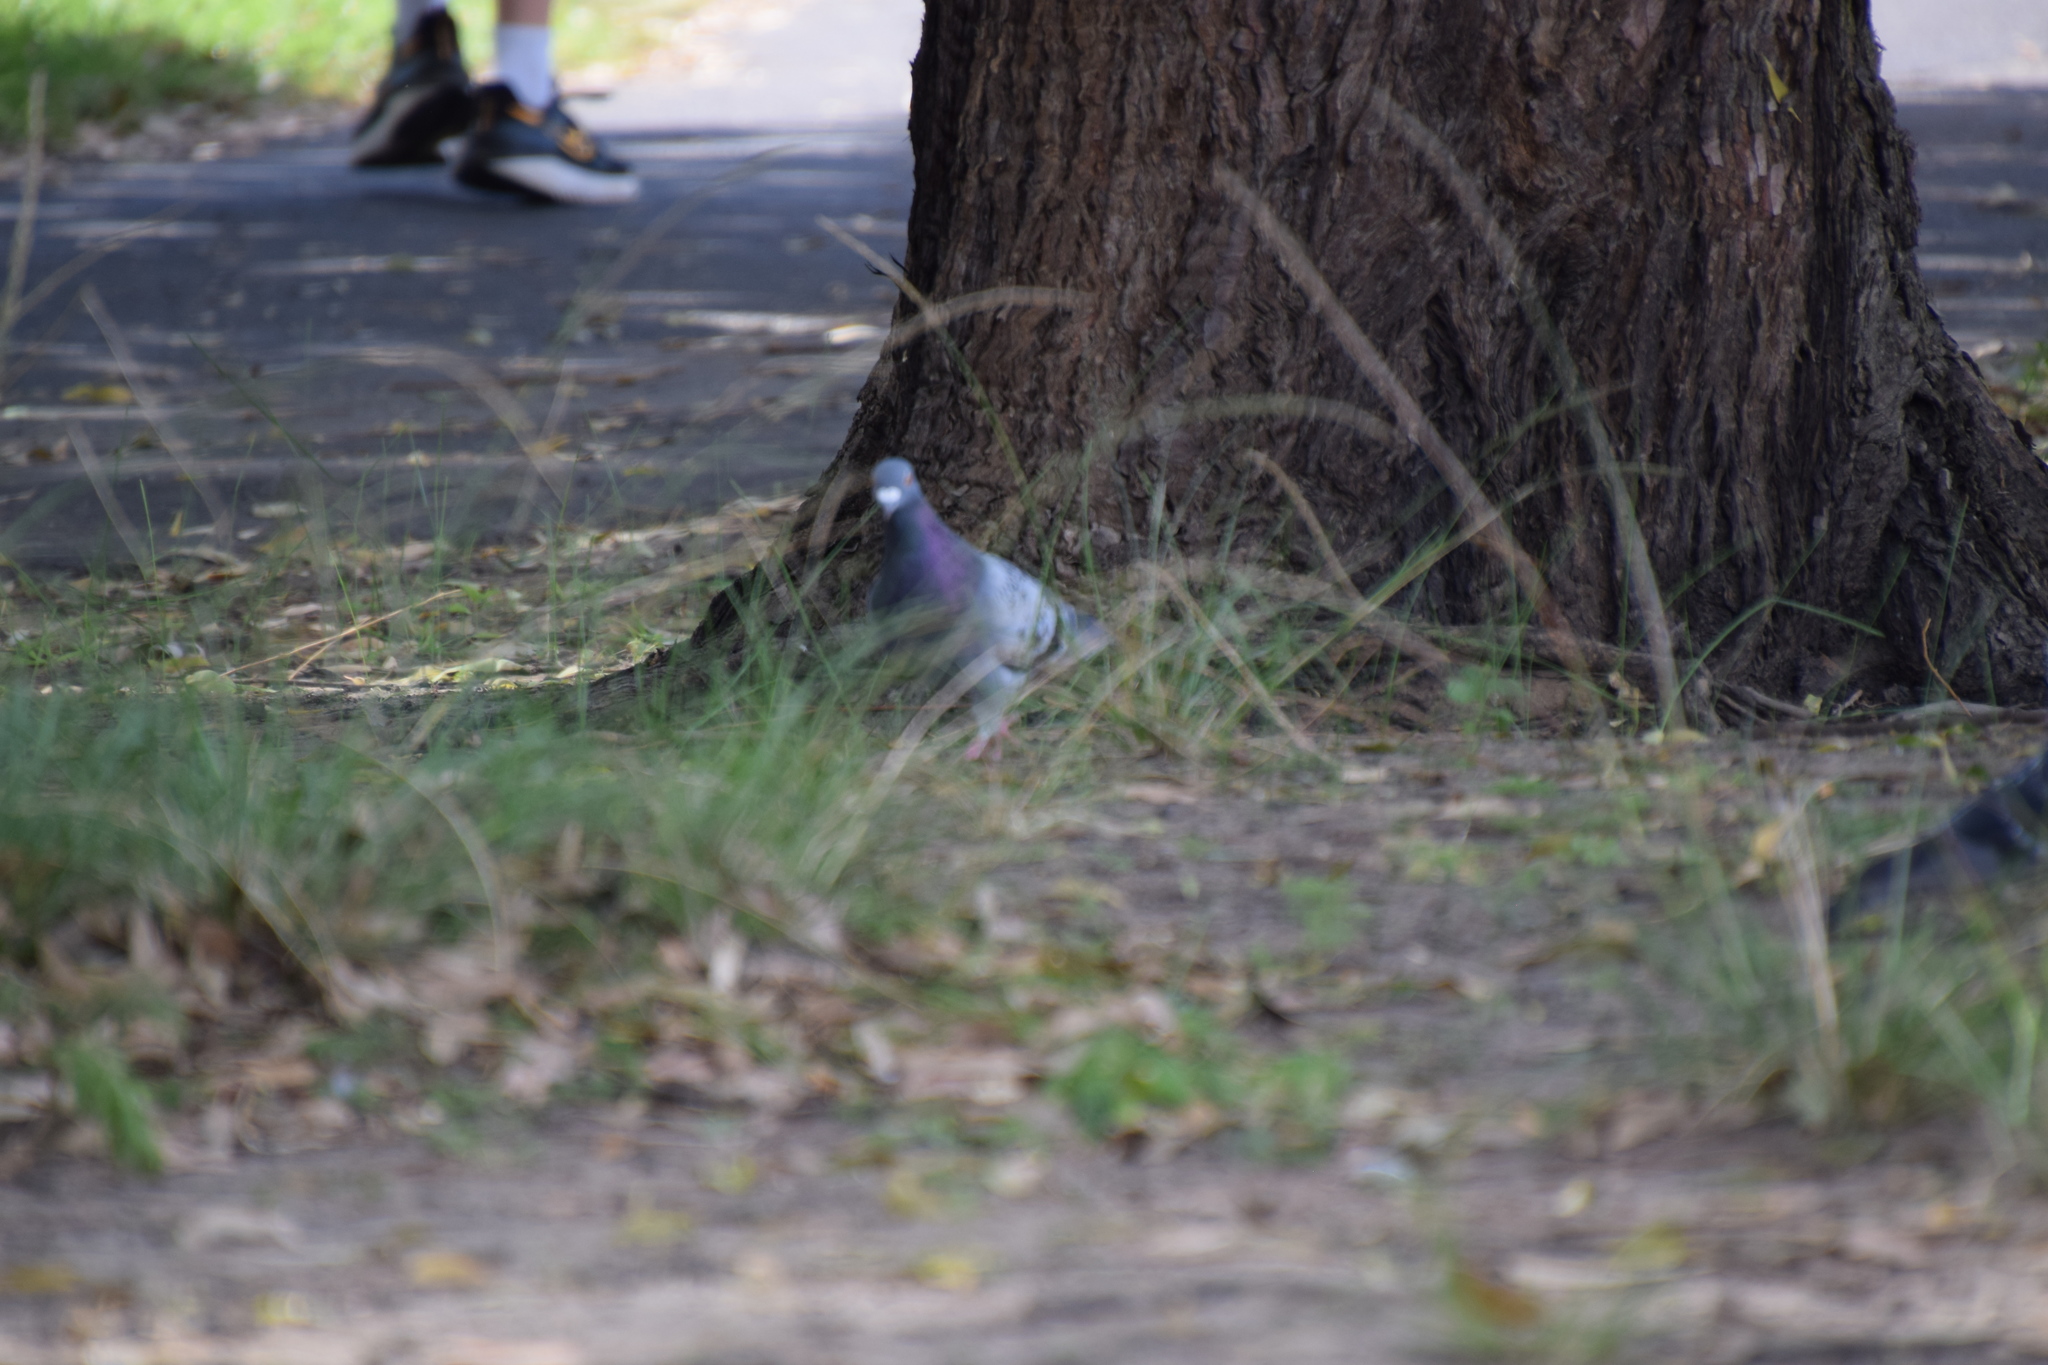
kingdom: Animalia
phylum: Chordata
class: Aves
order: Columbiformes
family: Columbidae
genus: Columba
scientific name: Columba livia
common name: Rock pigeon
